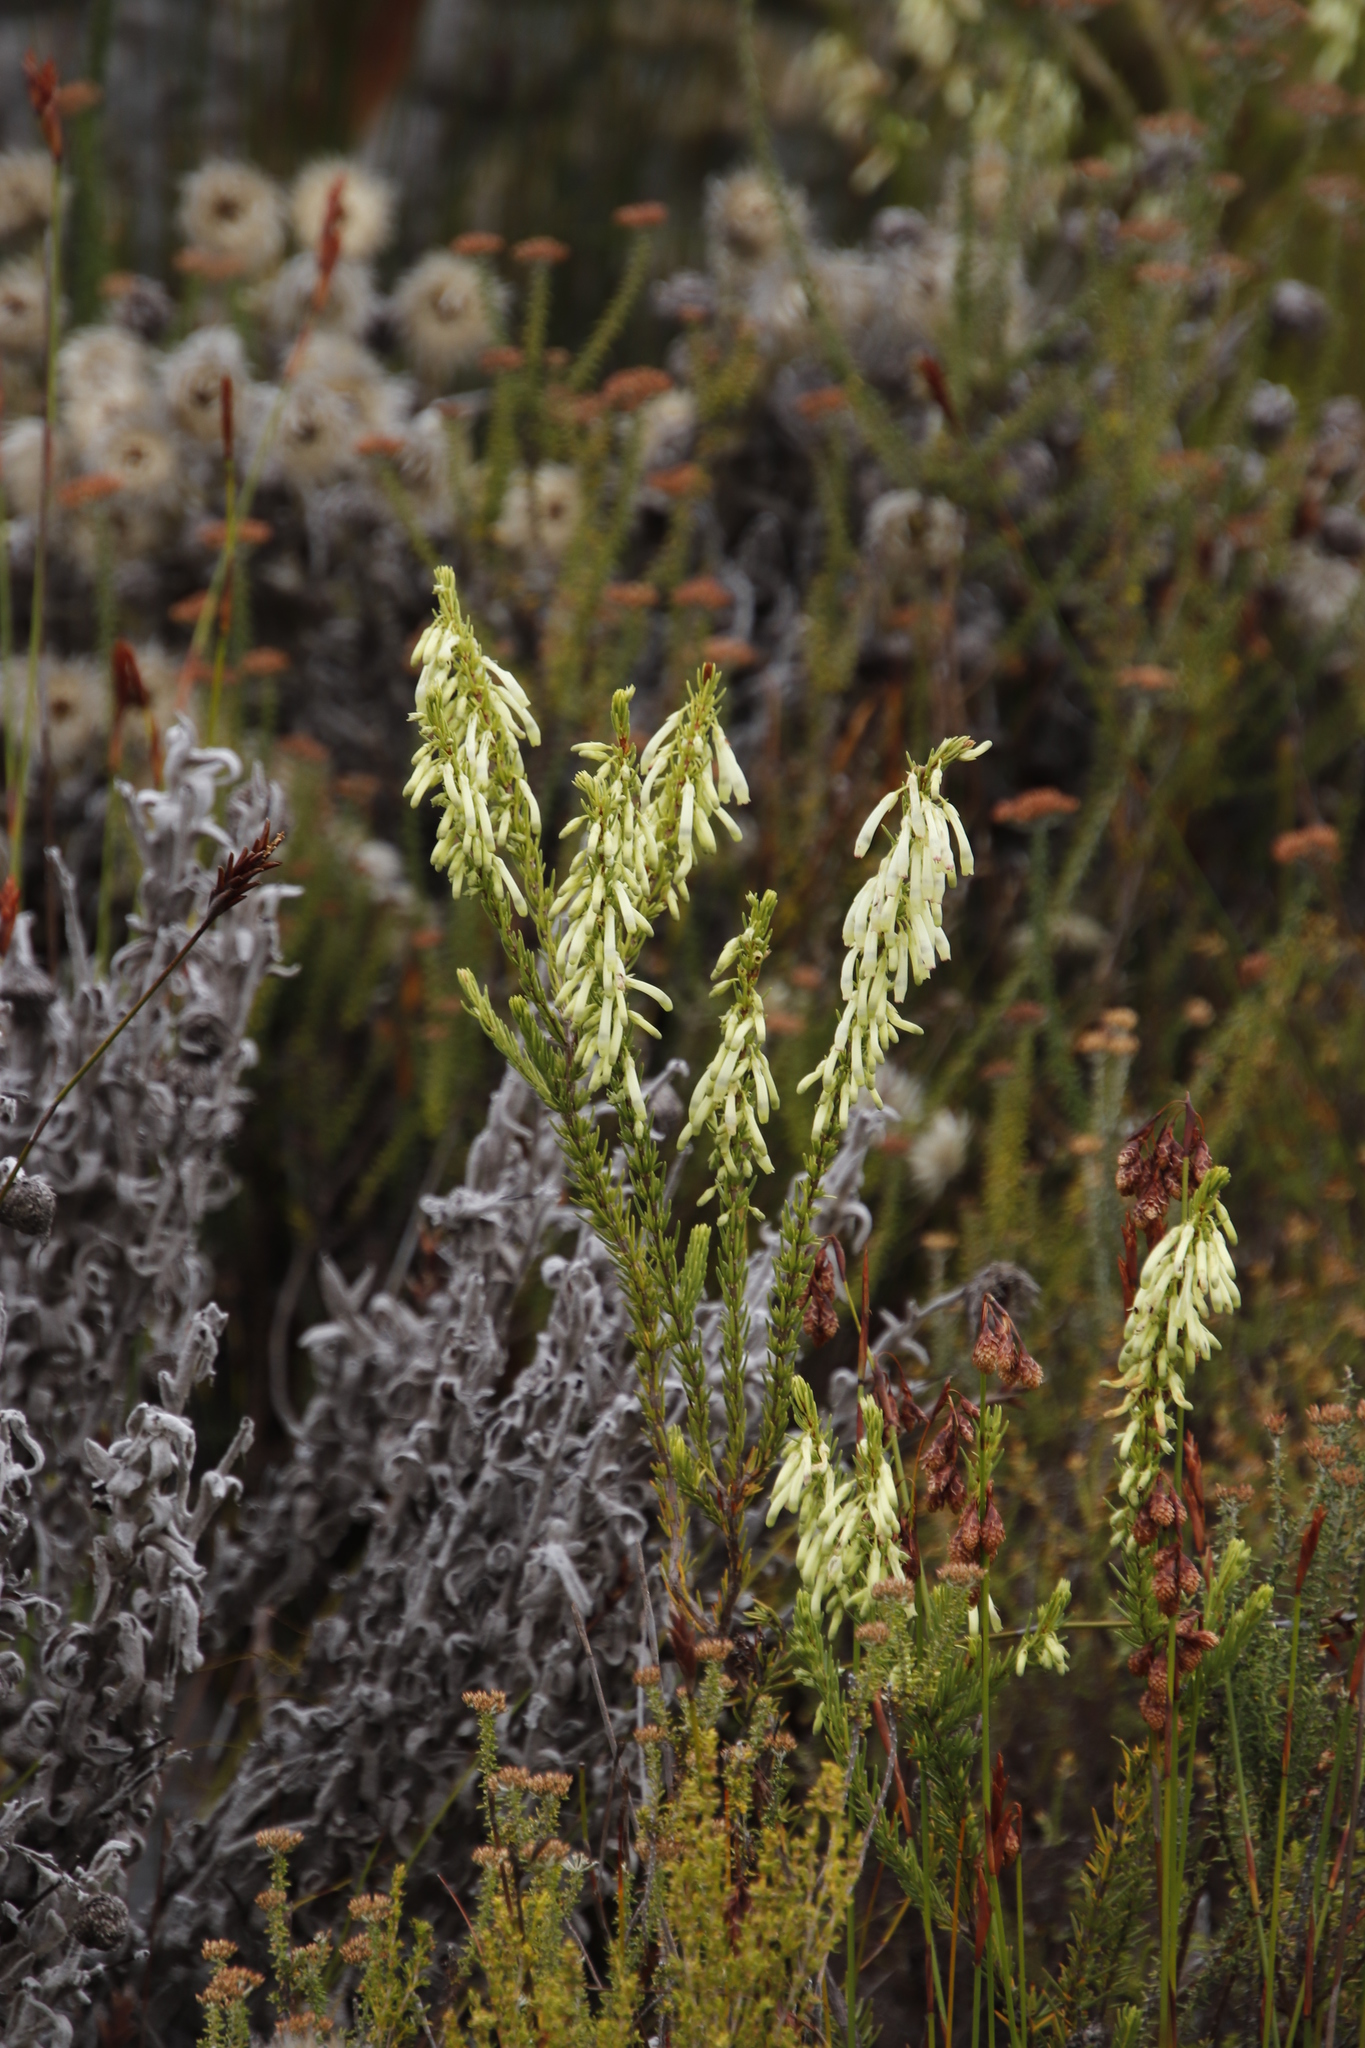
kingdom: Plantae
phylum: Tracheophyta
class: Magnoliopsida
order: Ericales
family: Ericaceae
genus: Erica
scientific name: Erica mammosa
